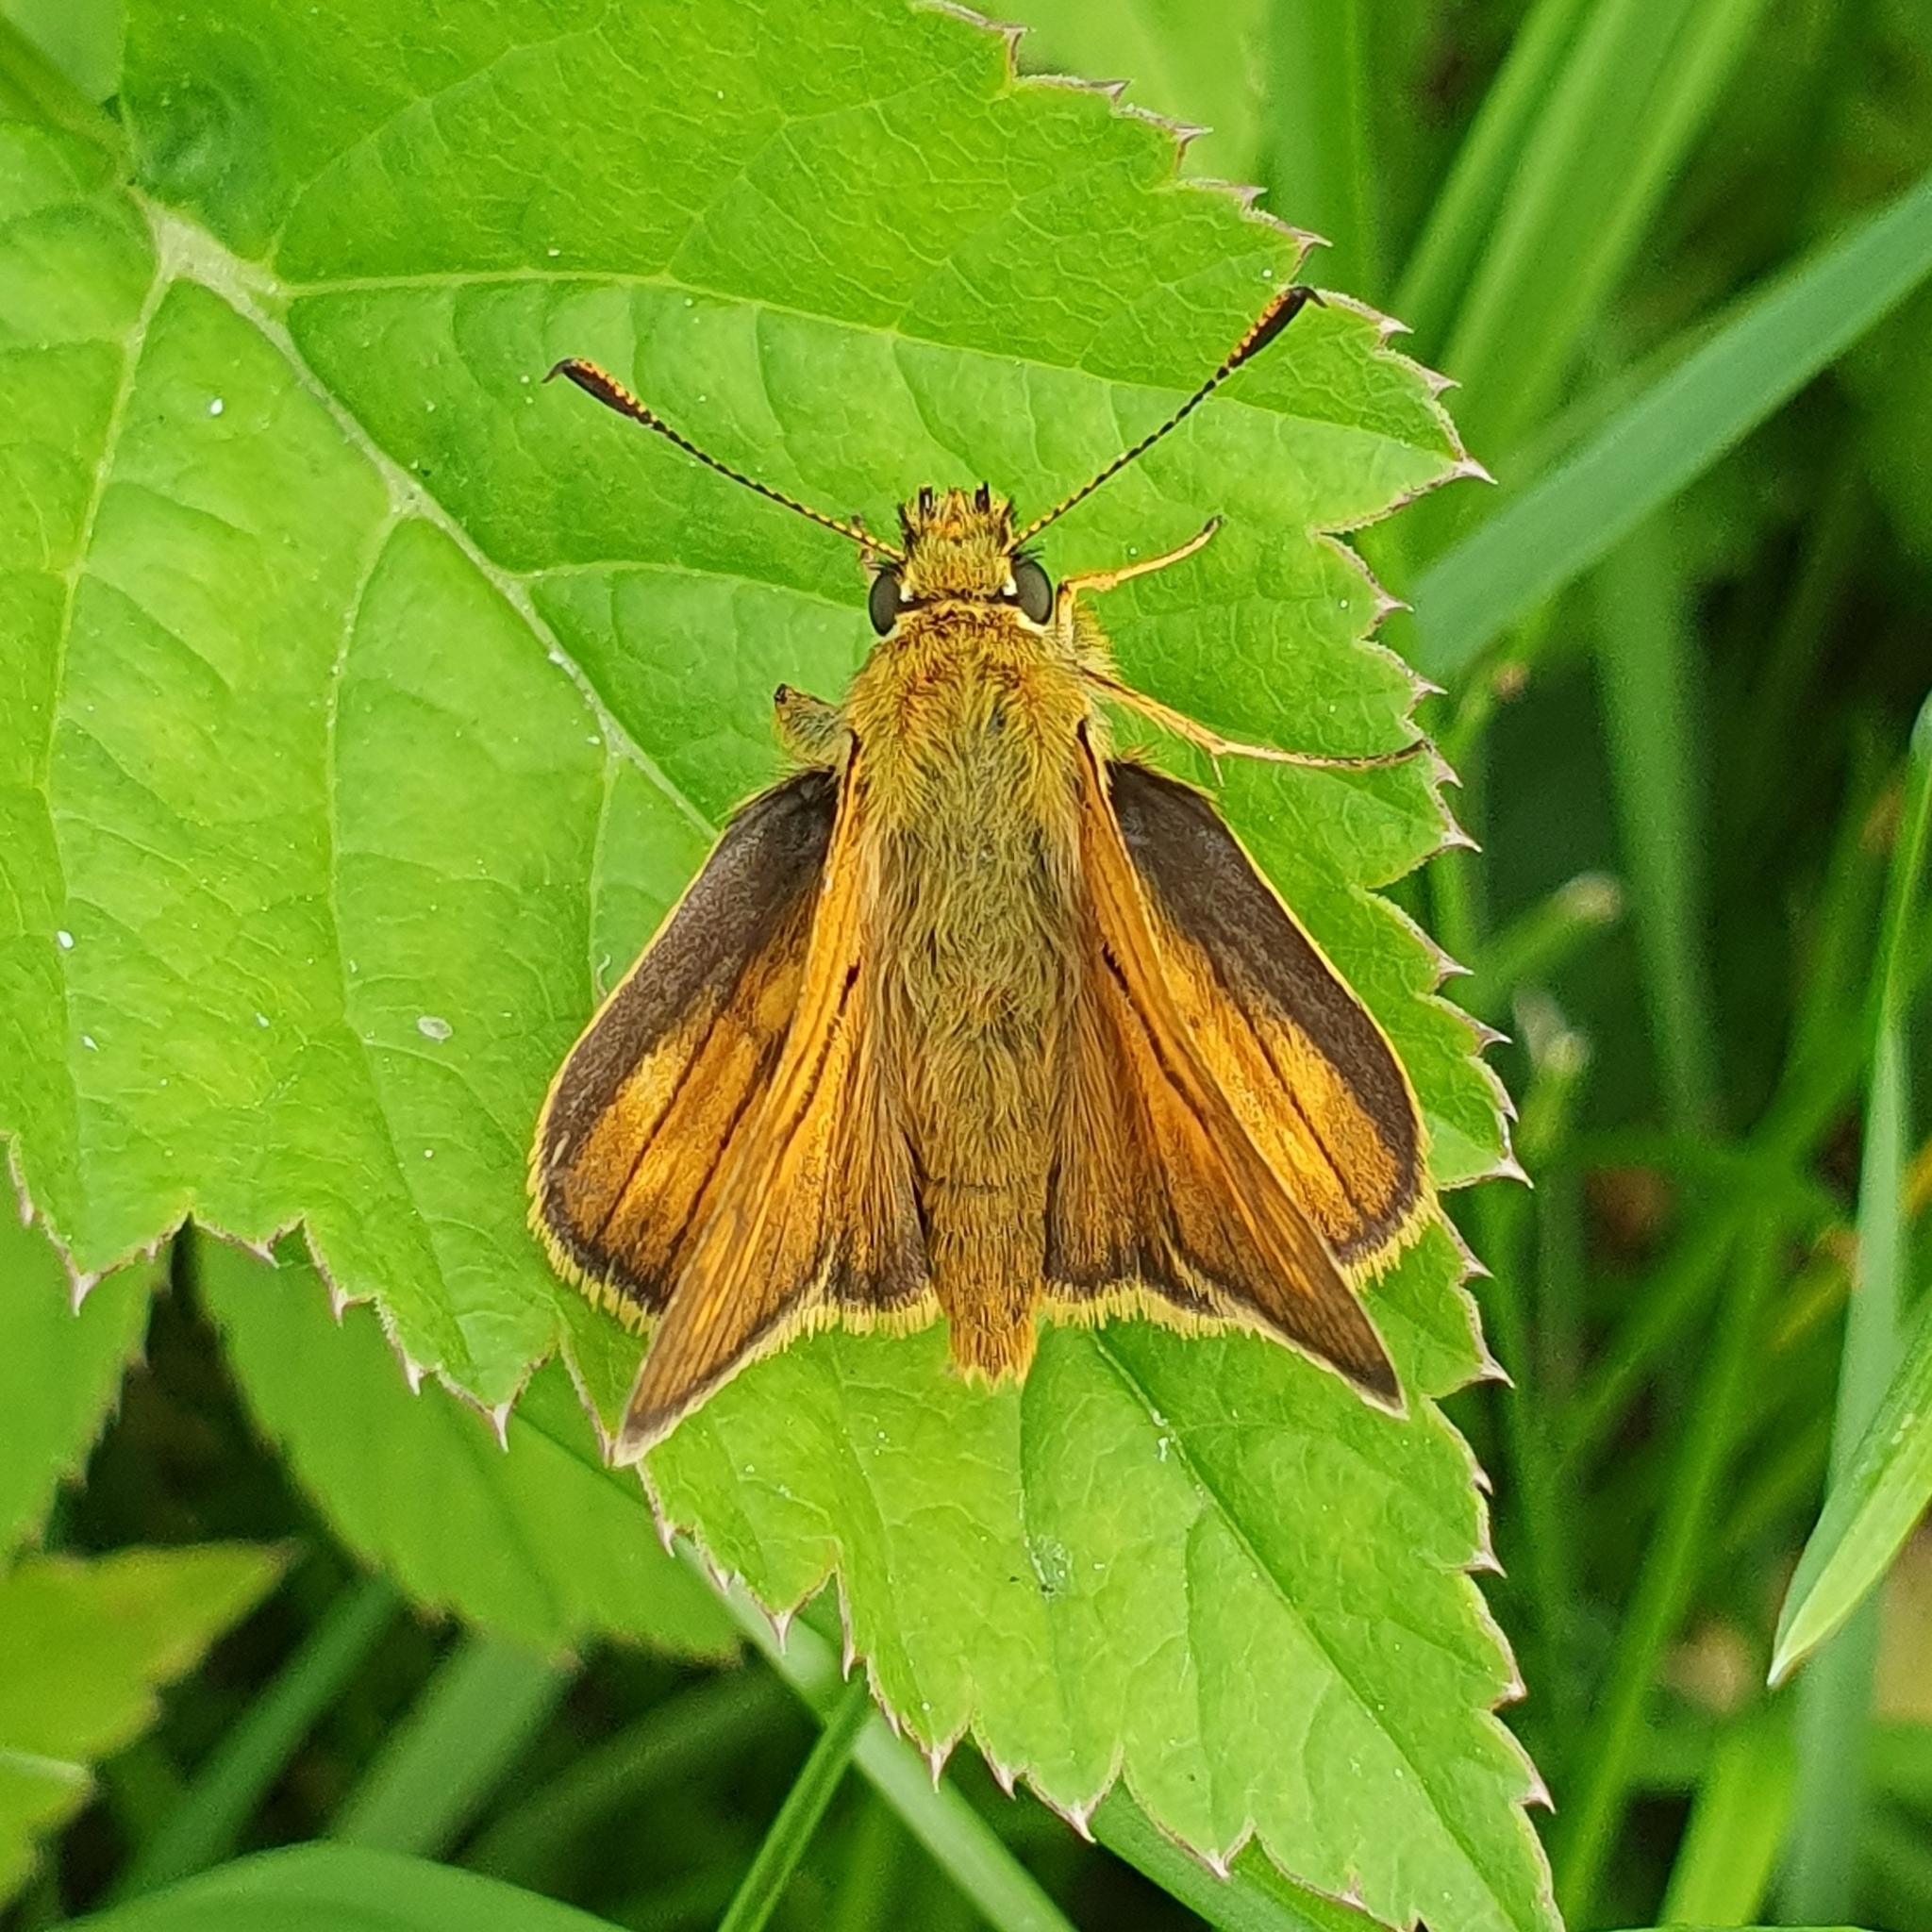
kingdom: Animalia
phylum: Arthropoda
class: Insecta
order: Lepidoptera
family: Hesperiidae
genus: Ochlodes
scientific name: Ochlodes venata
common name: Large skipper
